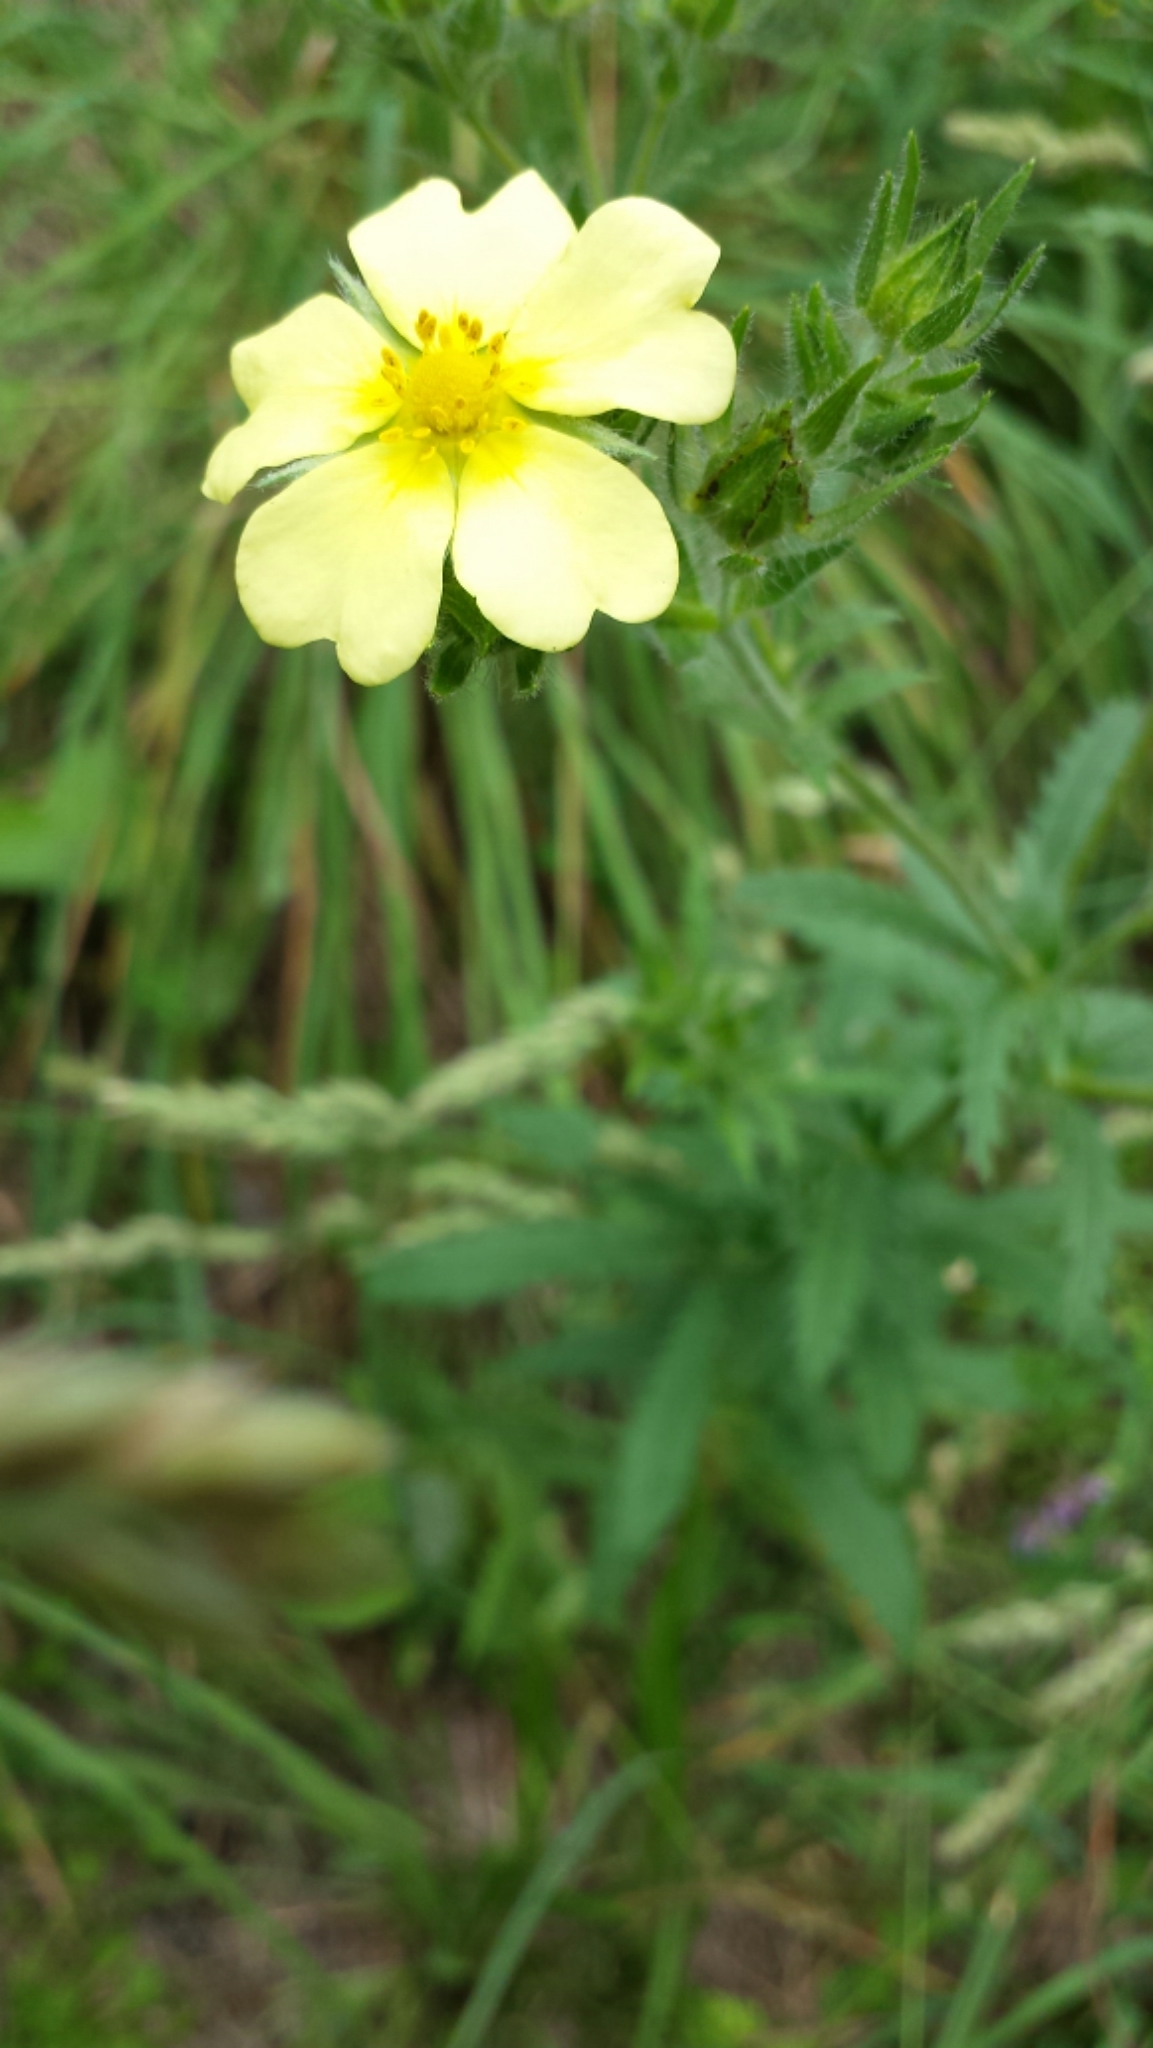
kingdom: Plantae
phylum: Tracheophyta
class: Magnoliopsida
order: Rosales
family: Rosaceae
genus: Potentilla
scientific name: Potentilla recta
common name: Sulphur cinquefoil
